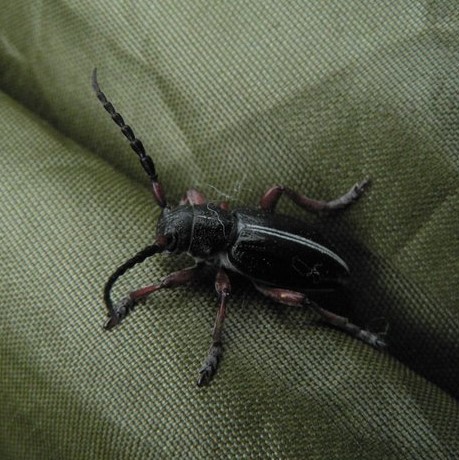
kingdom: Animalia
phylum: Arthropoda
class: Insecta
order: Coleoptera
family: Cerambycidae
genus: Dorcadion
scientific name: Dorcadion pedestre
